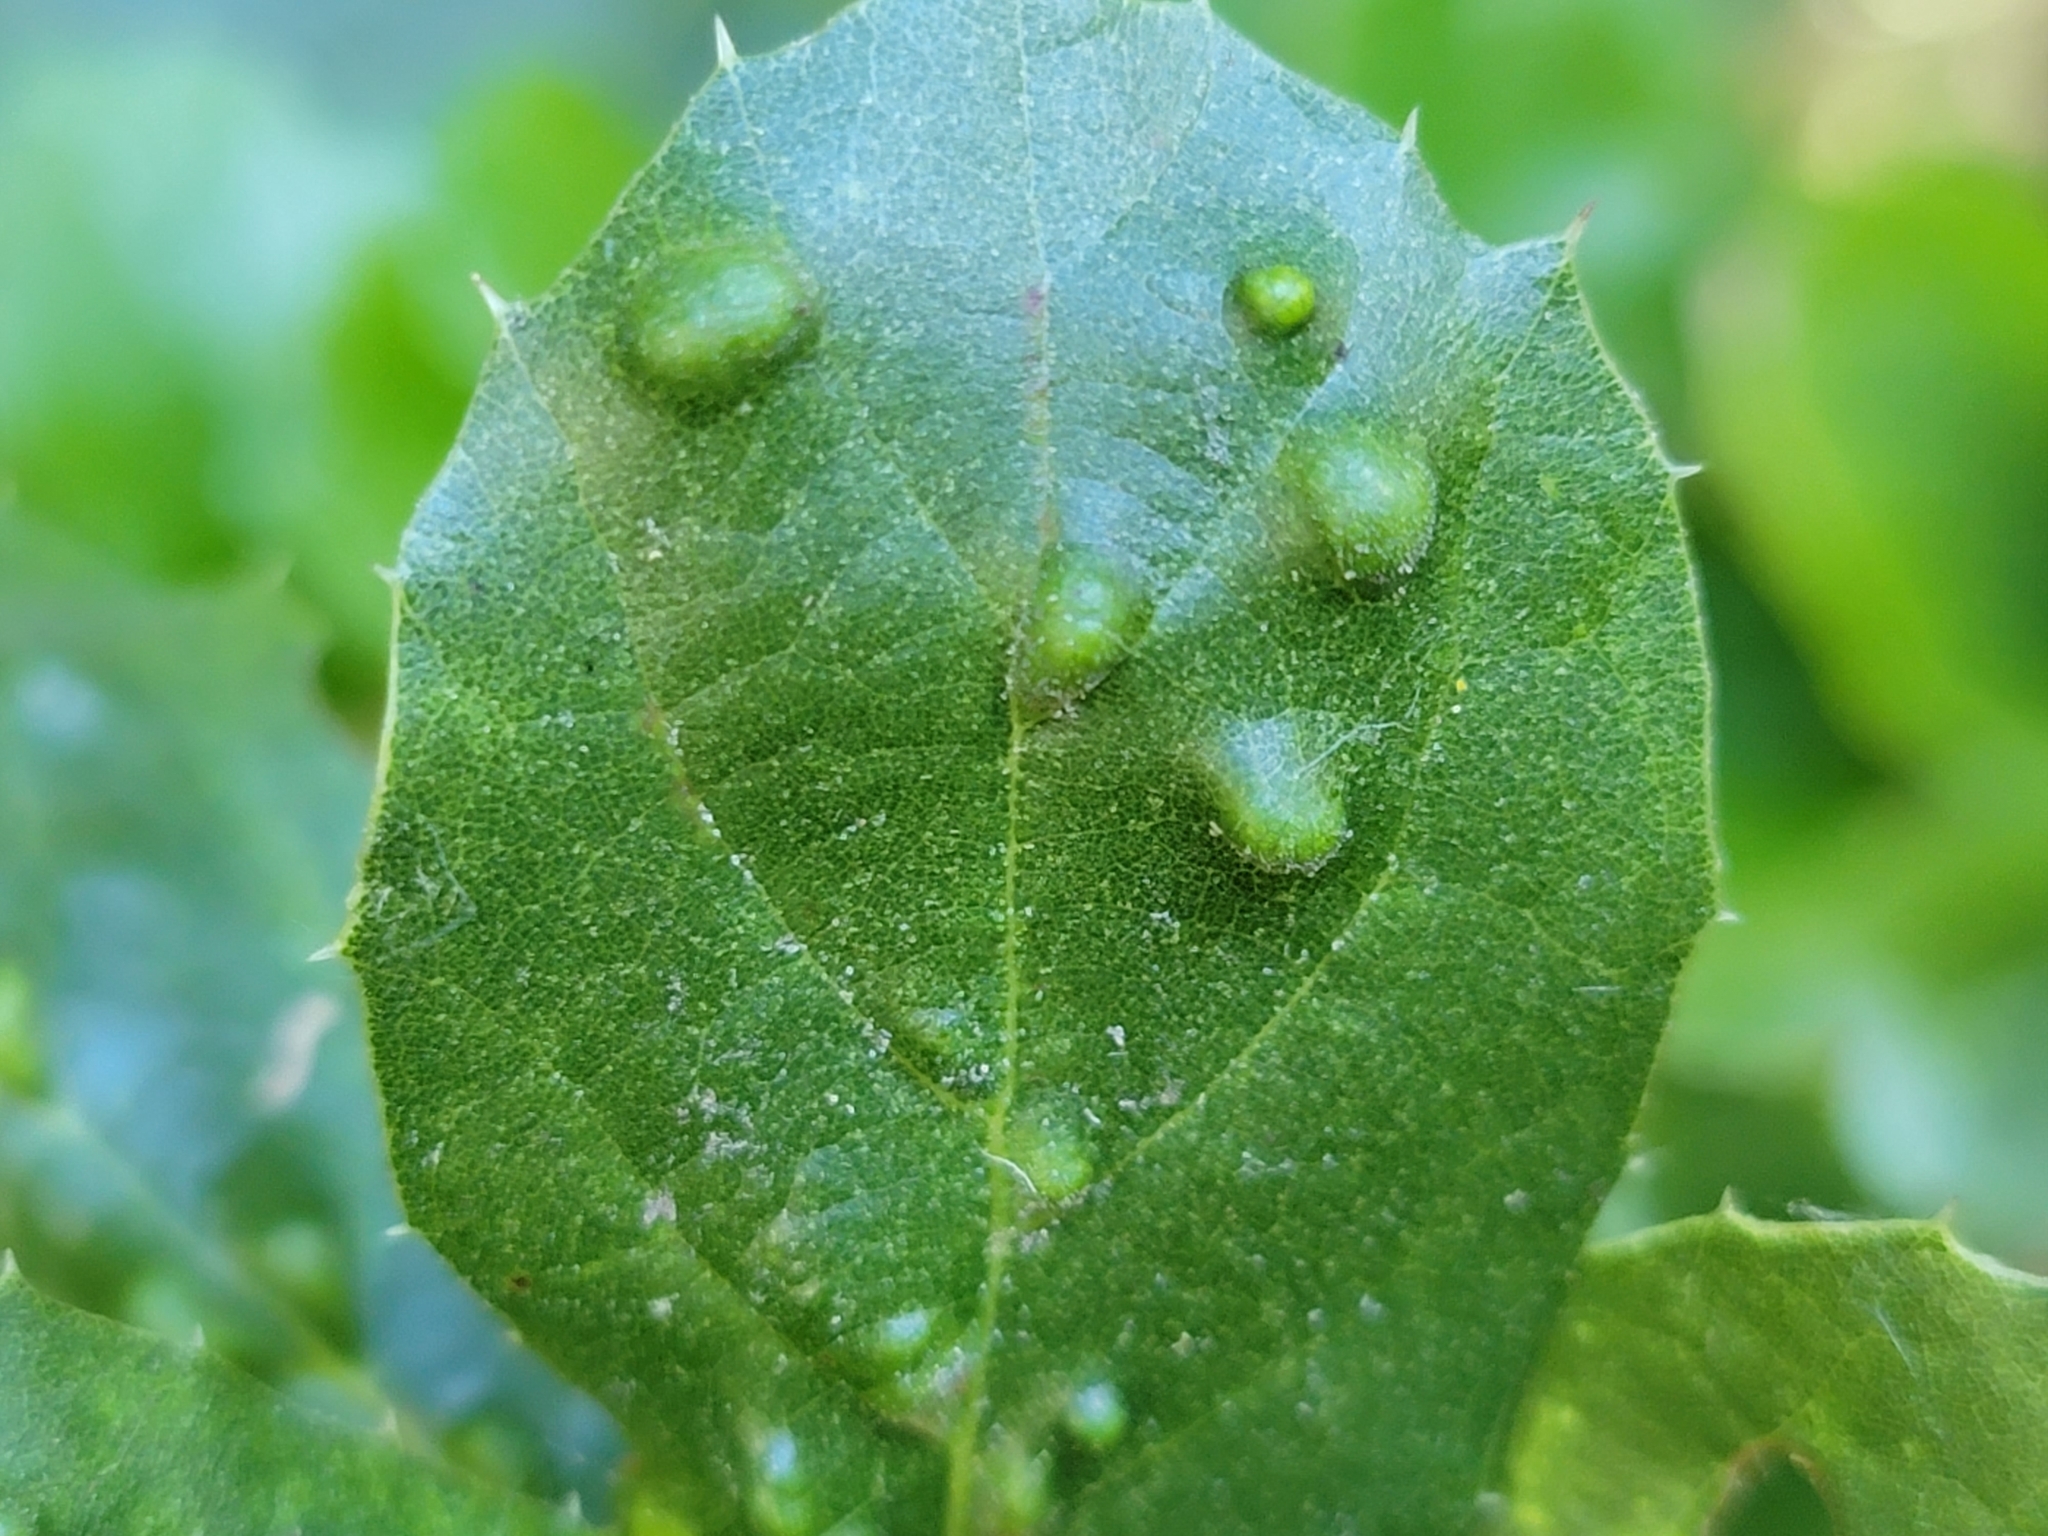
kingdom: Animalia
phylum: Arthropoda
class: Arachnida
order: Trombidiformes
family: Eriophyidae
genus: Aceria
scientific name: Aceria
